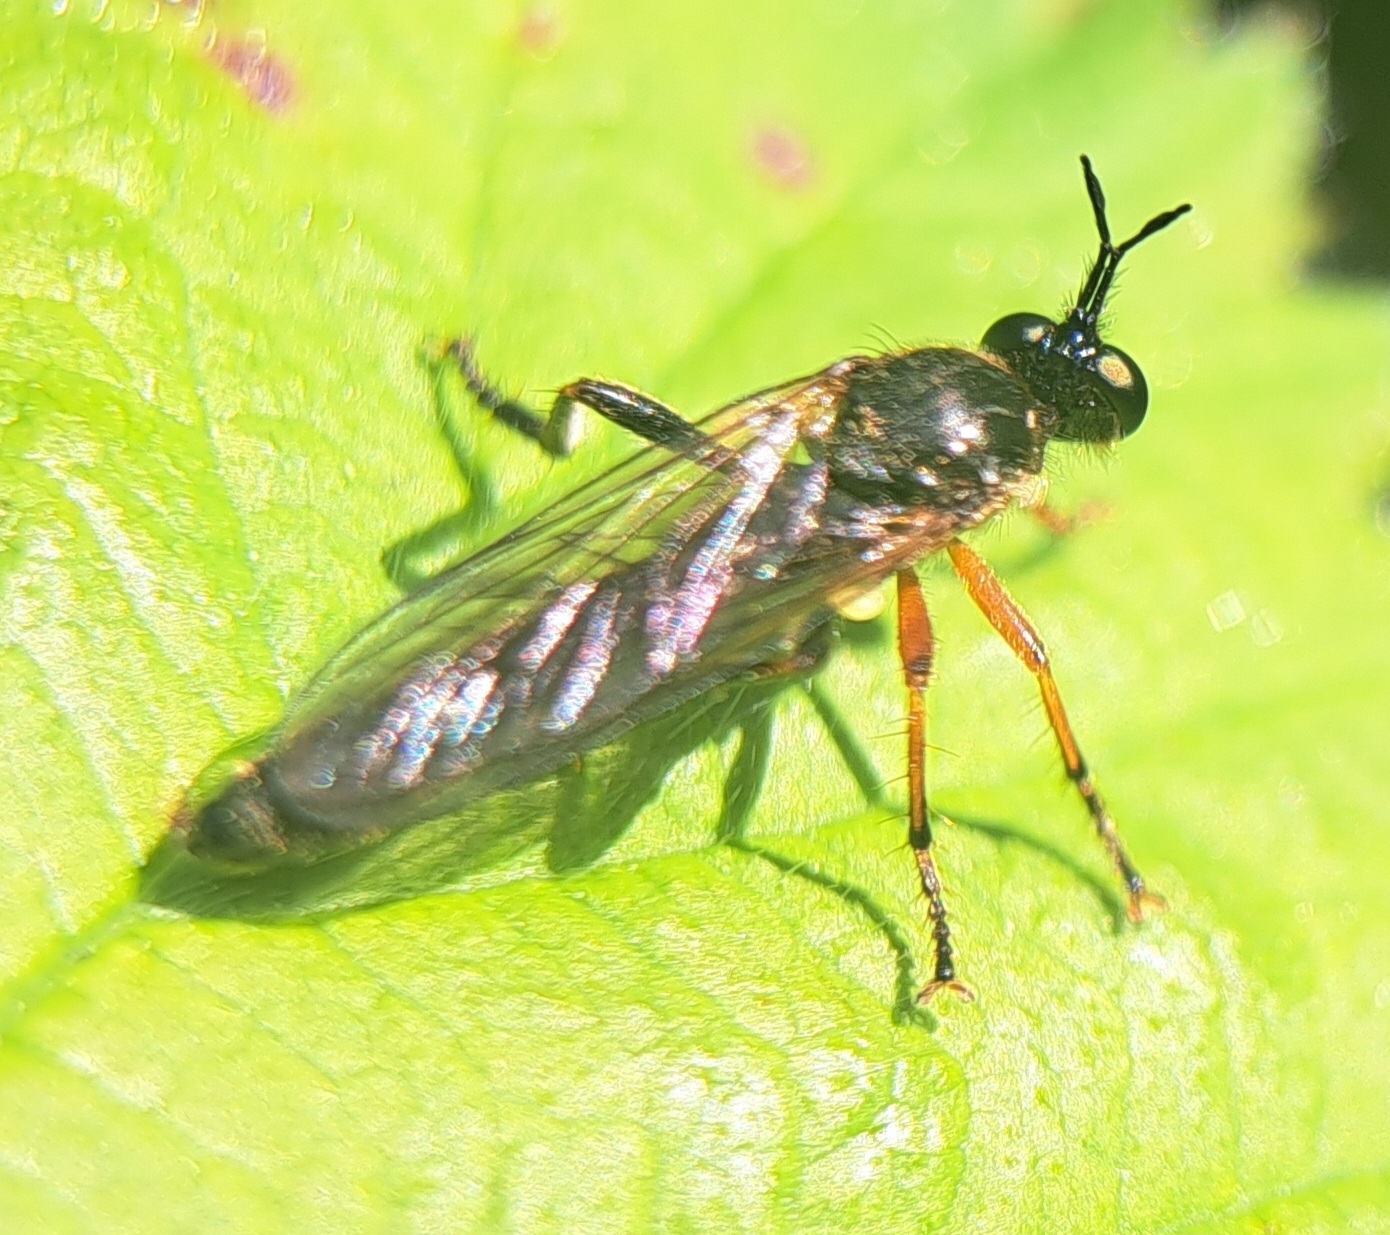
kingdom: Animalia
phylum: Arthropoda
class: Insecta
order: Diptera
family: Asilidae
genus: Dioctria
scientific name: Dioctria rufipes
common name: Common red-legged robberfly
